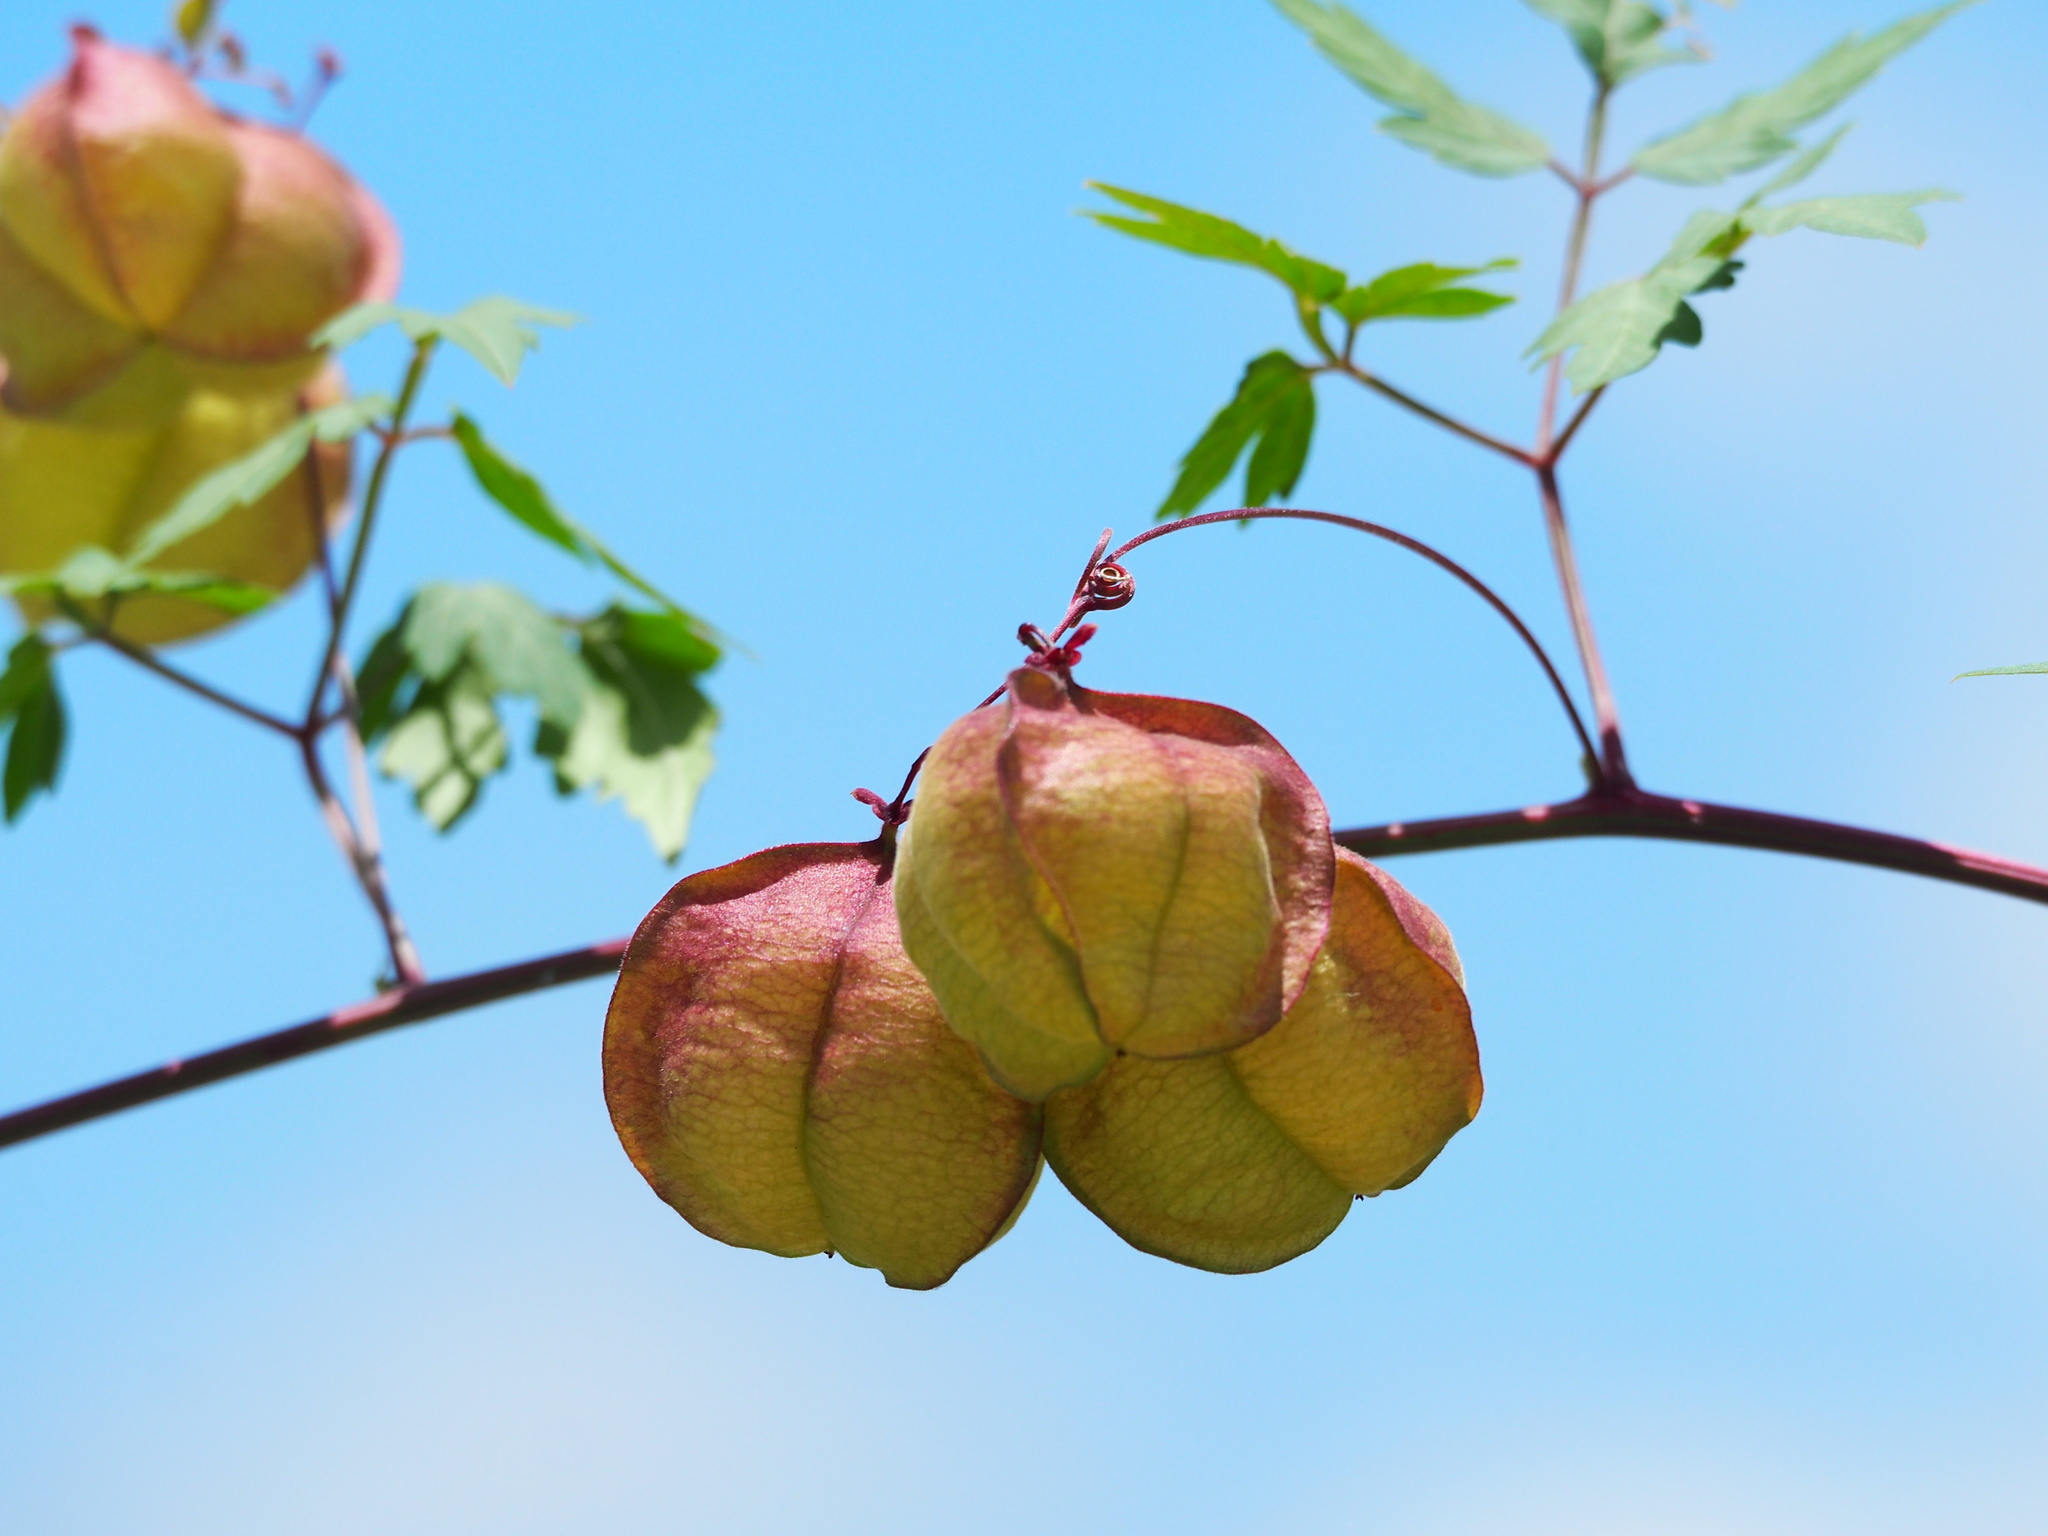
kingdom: Plantae
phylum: Tracheophyta
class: Magnoliopsida
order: Sapindales
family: Sapindaceae
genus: Cardiospermum
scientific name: Cardiospermum halicacabum
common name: Balloon vine
